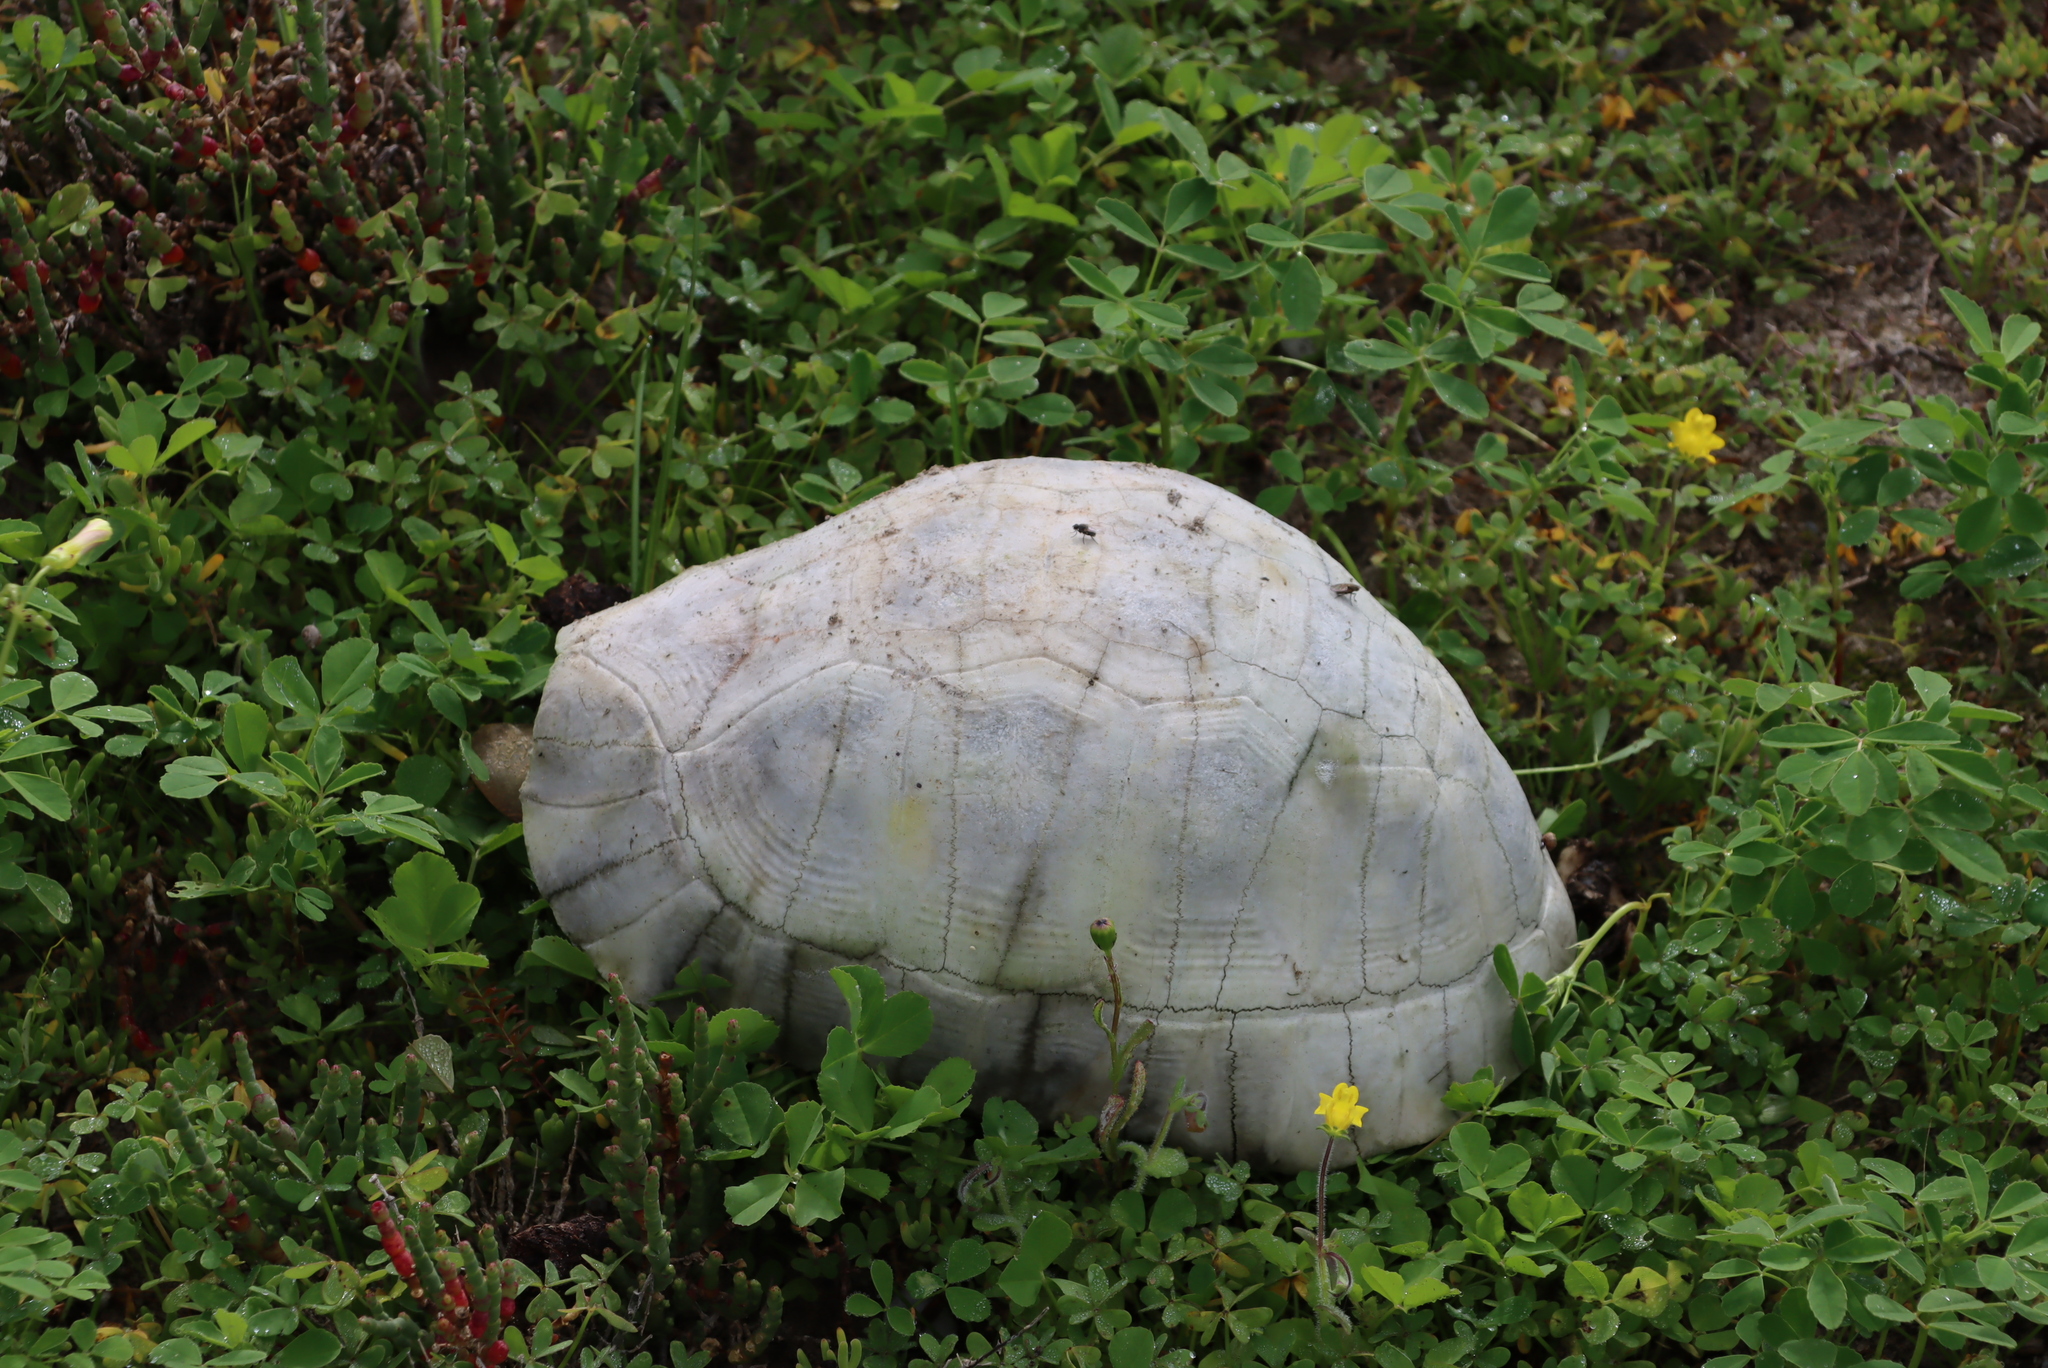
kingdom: Animalia
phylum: Chordata
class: Testudines
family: Testudinidae
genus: Chersina
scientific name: Chersina angulata
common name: South african bowsprit tortoise
